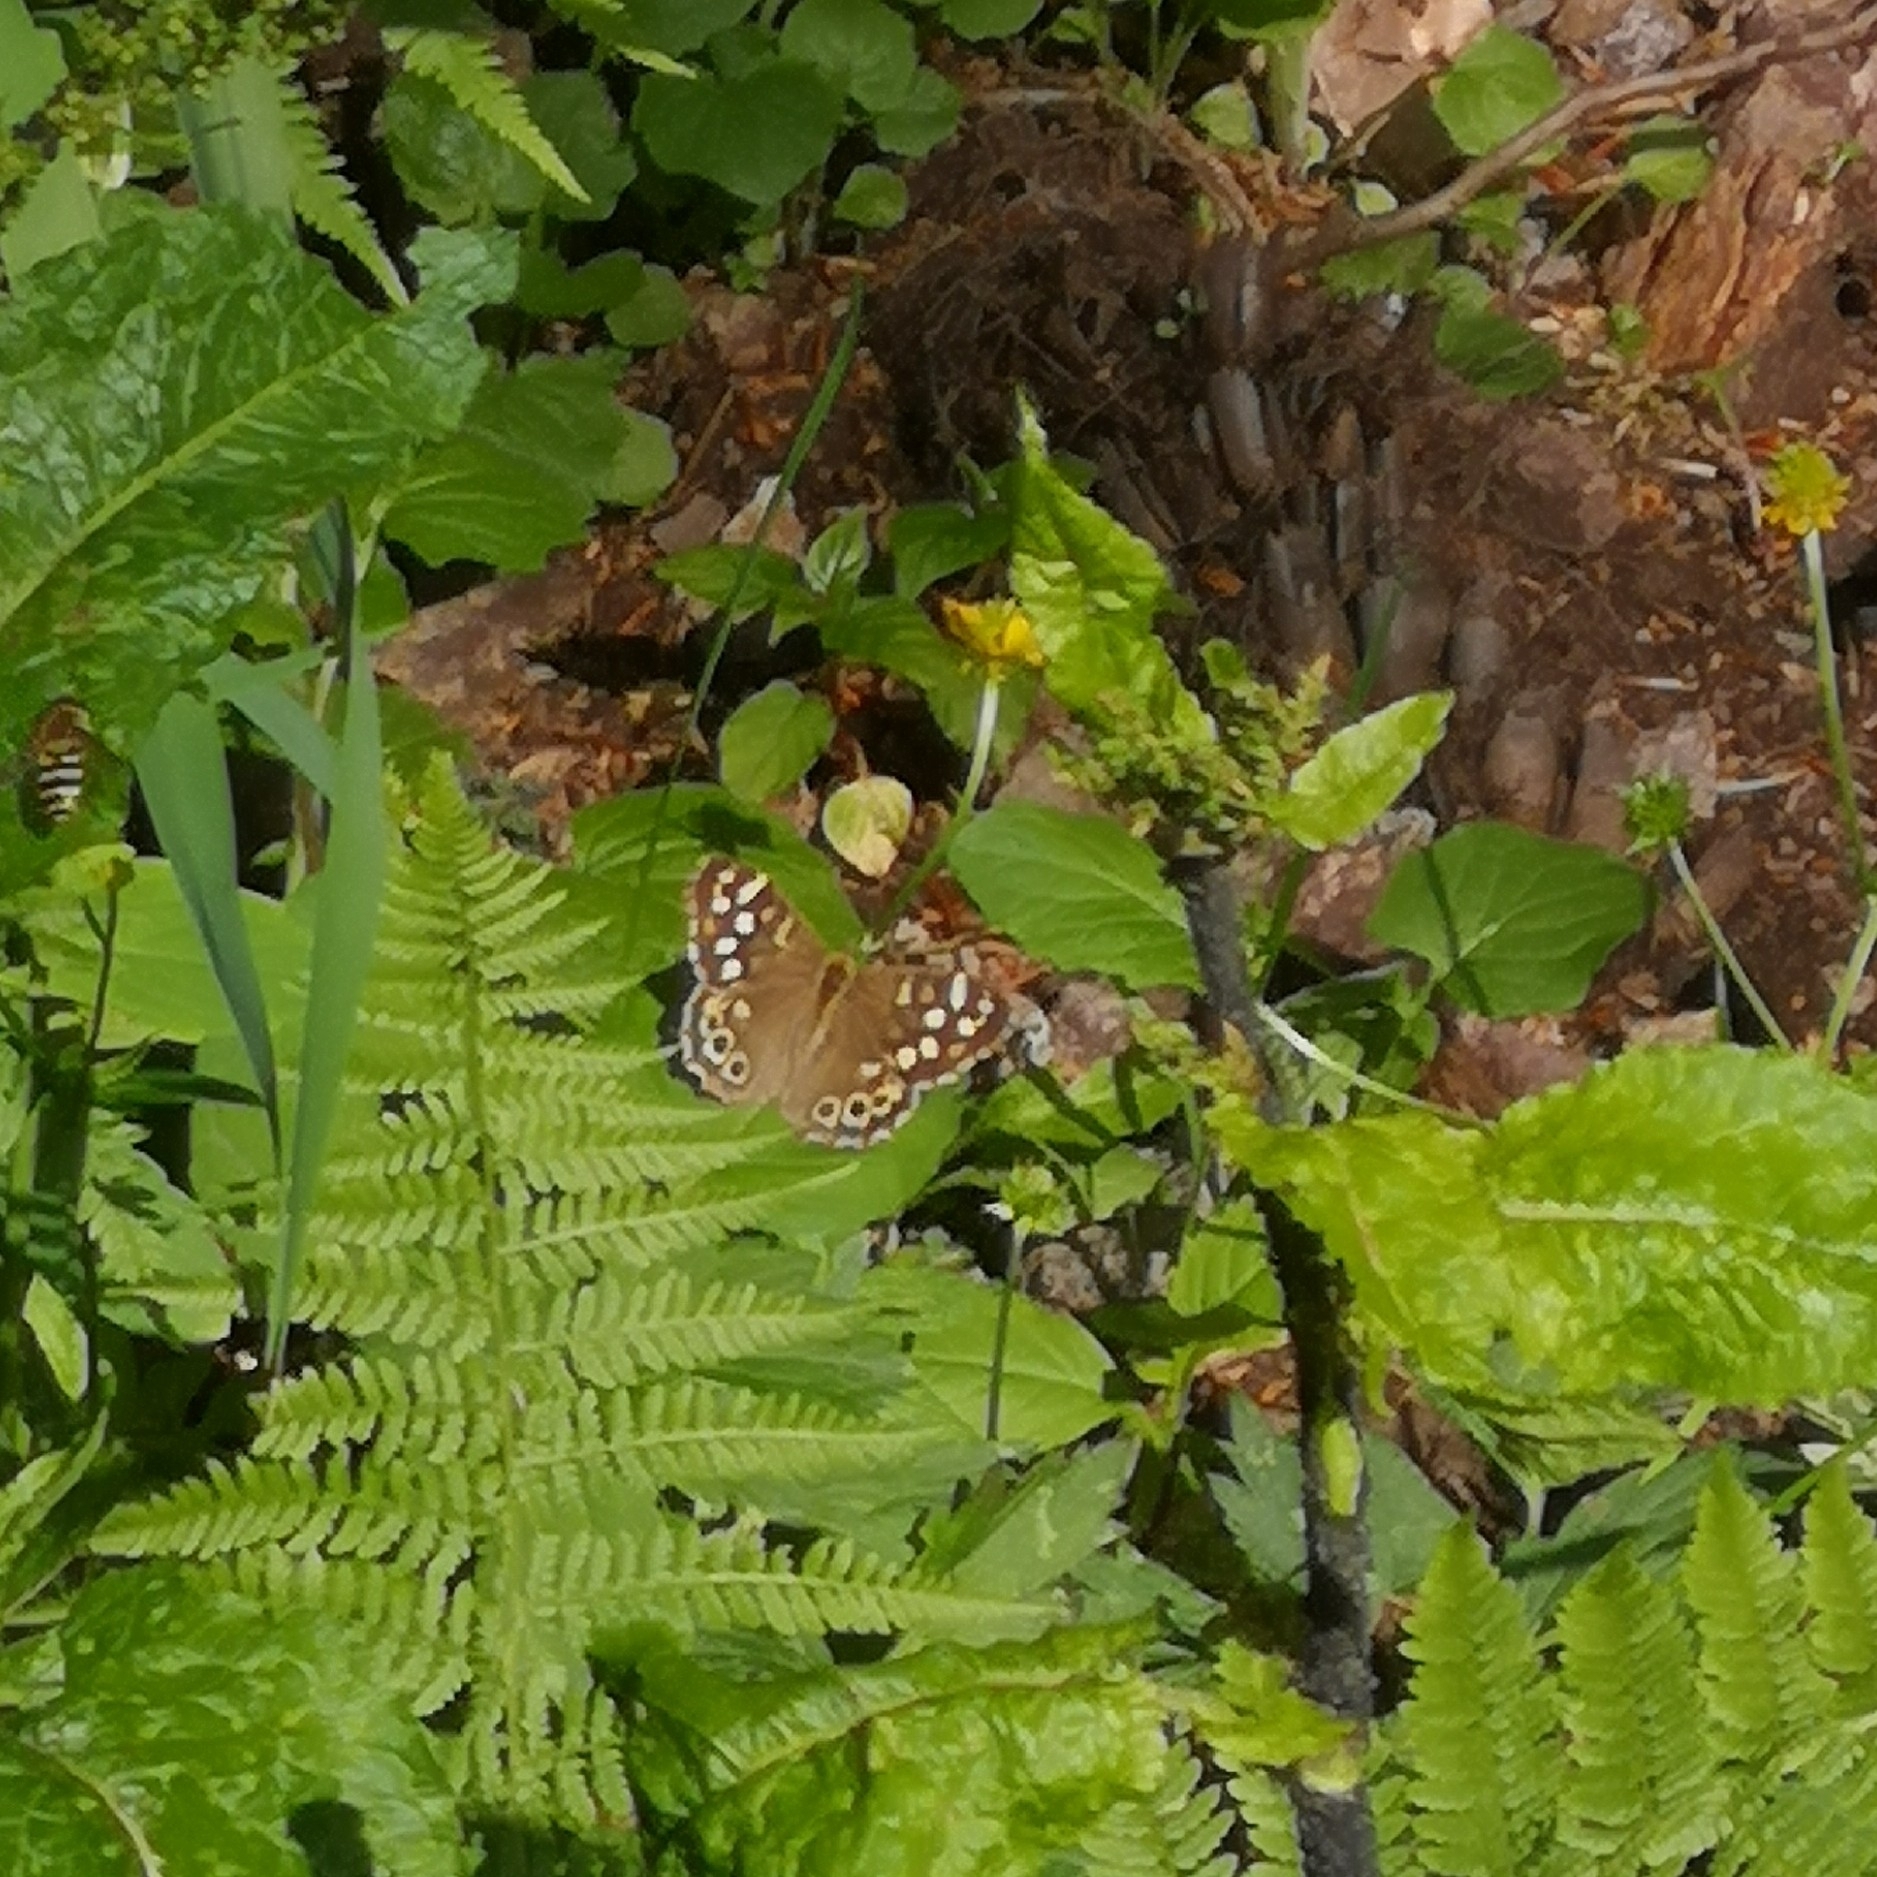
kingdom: Animalia
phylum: Arthropoda
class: Insecta
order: Lepidoptera
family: Nymphalidae
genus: Pararge
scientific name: Pararge aegeria
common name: Speckled wood
